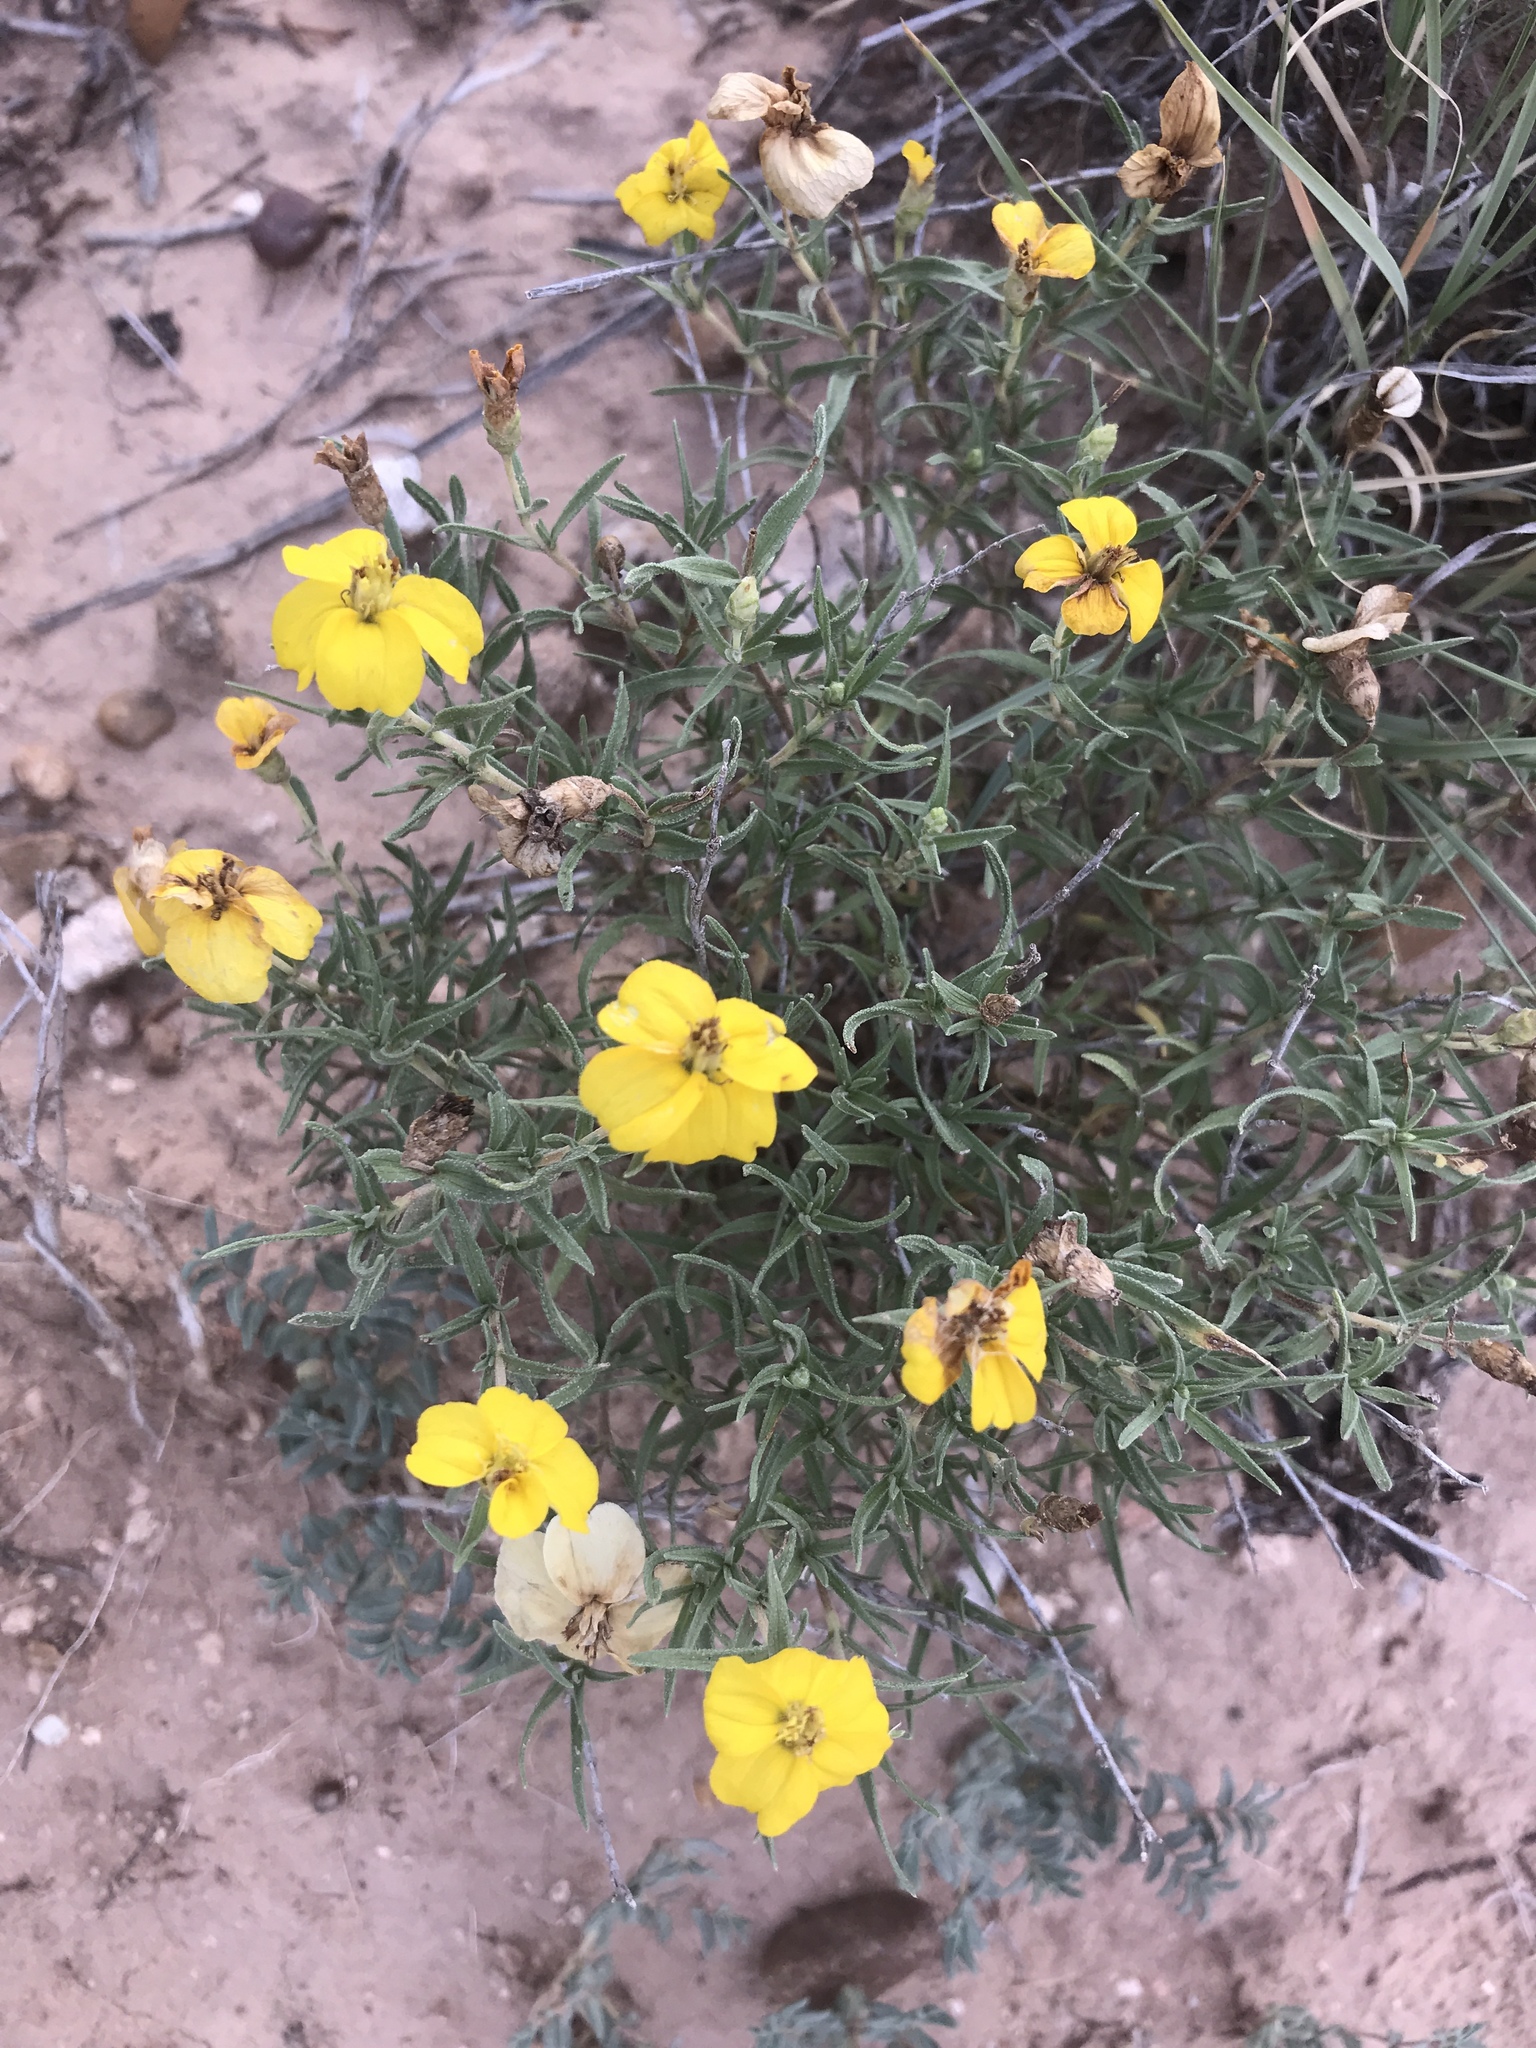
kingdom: Plantae
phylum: Tracheophyta
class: Magnoliopsida
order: Asterales
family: Asteraceae
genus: Zinnia
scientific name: Zinnia grandiflora
